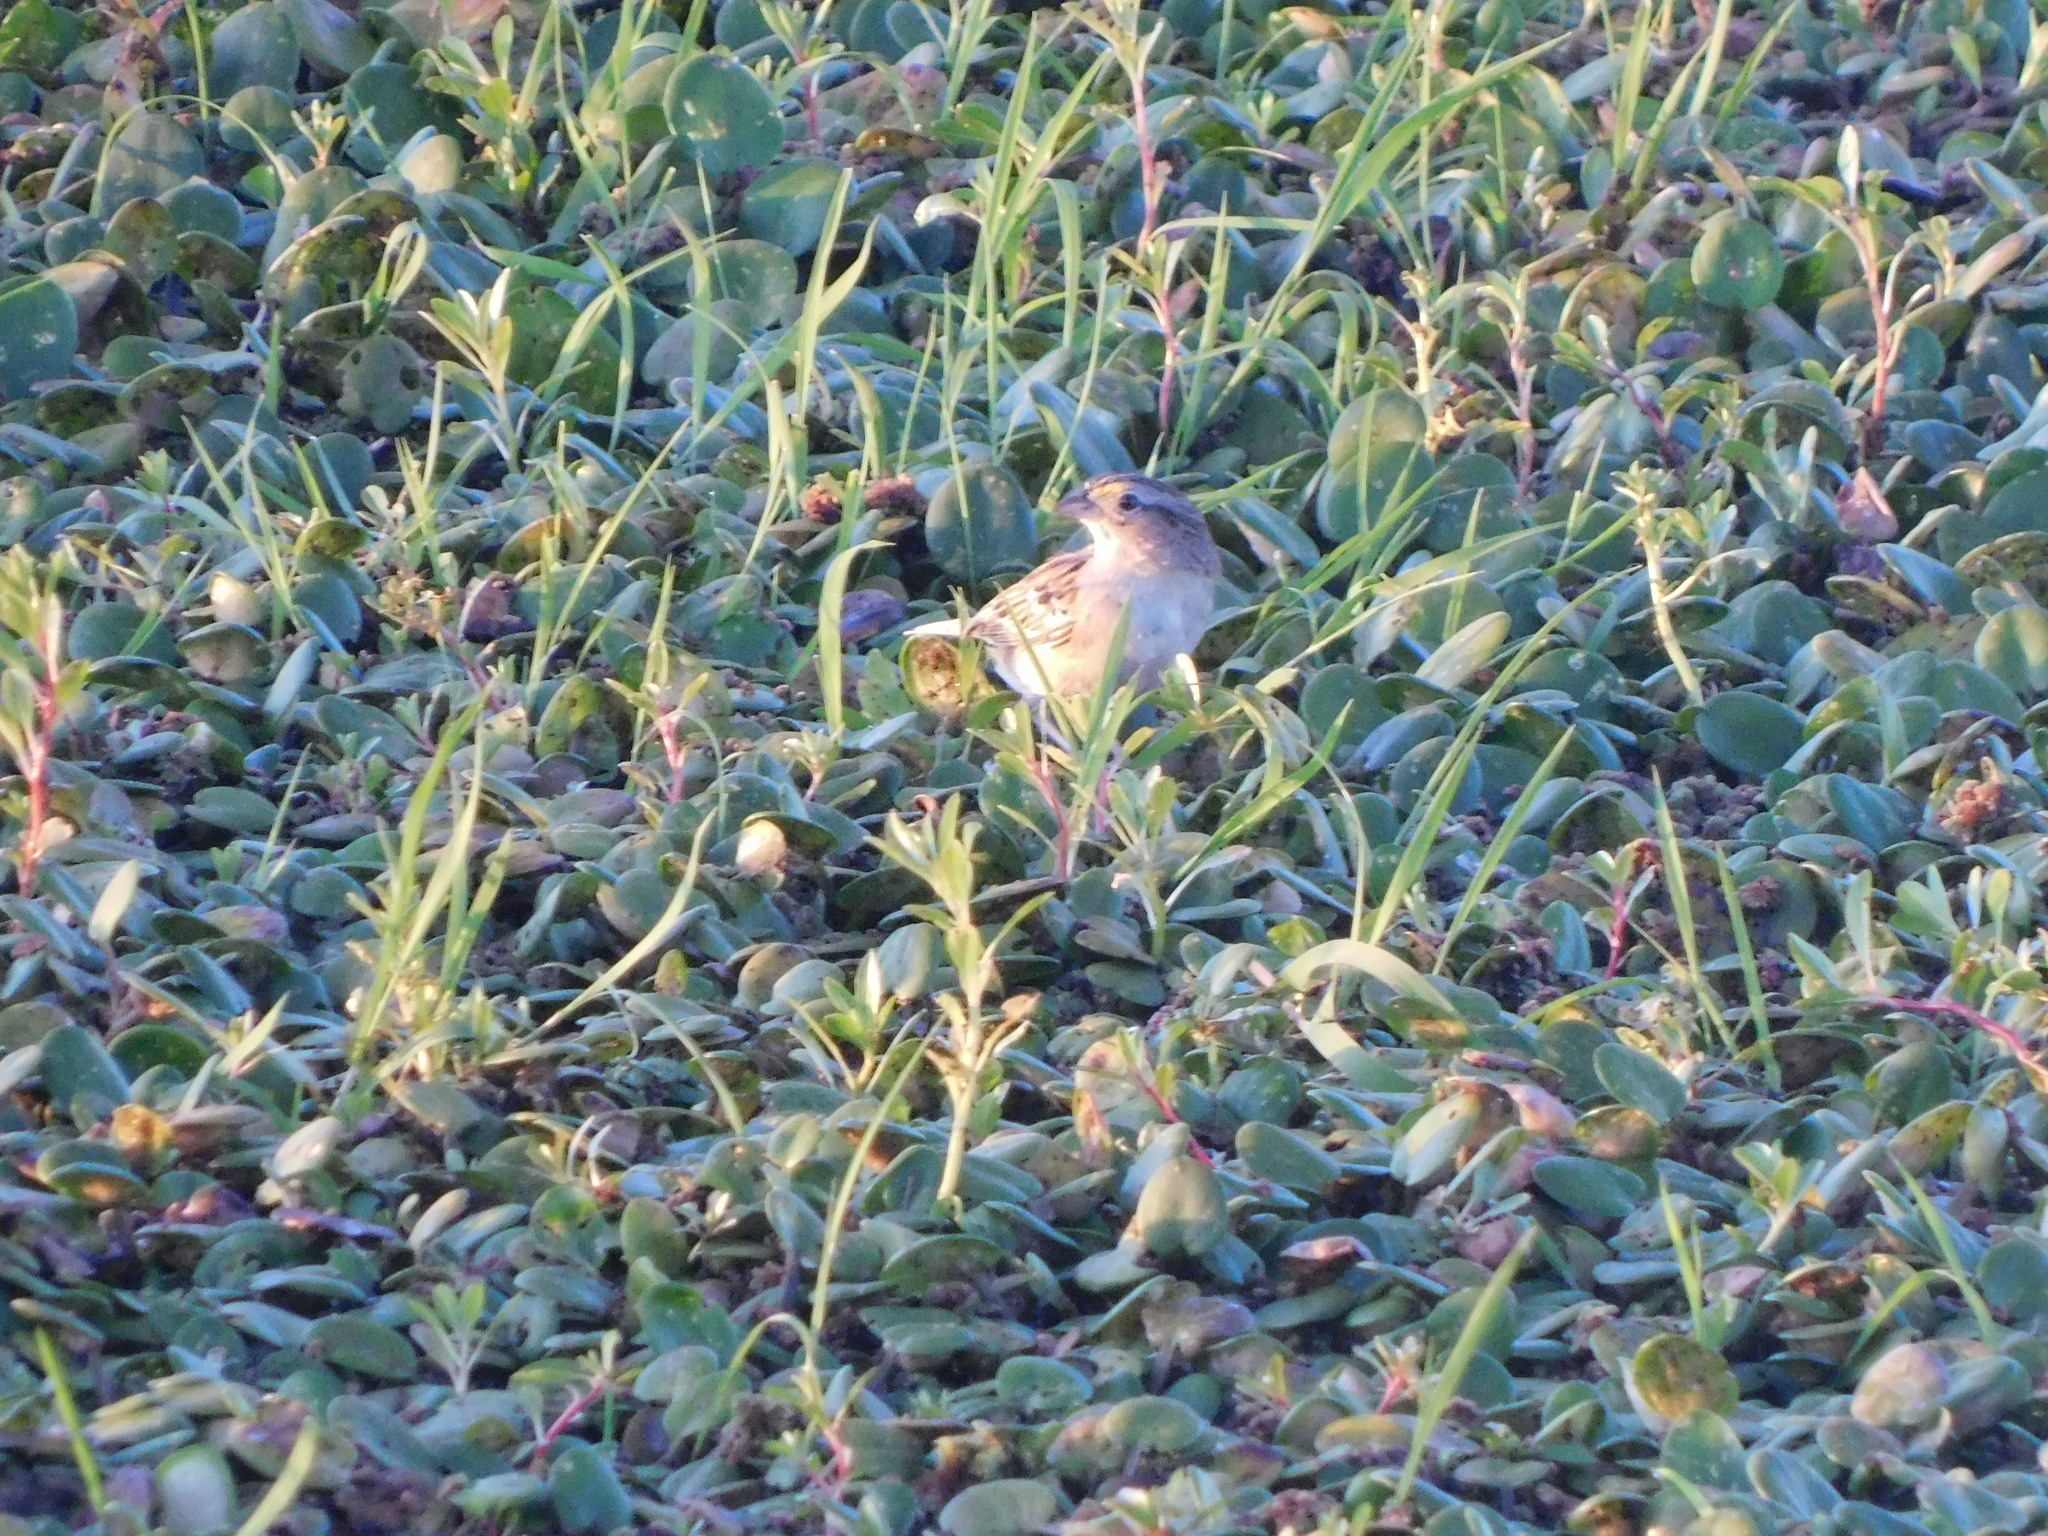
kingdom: Animalia
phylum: Chordata
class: Aves
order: Passeriformes
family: Passerellidae
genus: Ammodramus
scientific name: Ammodramus humeralis
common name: Grassland sparrow
